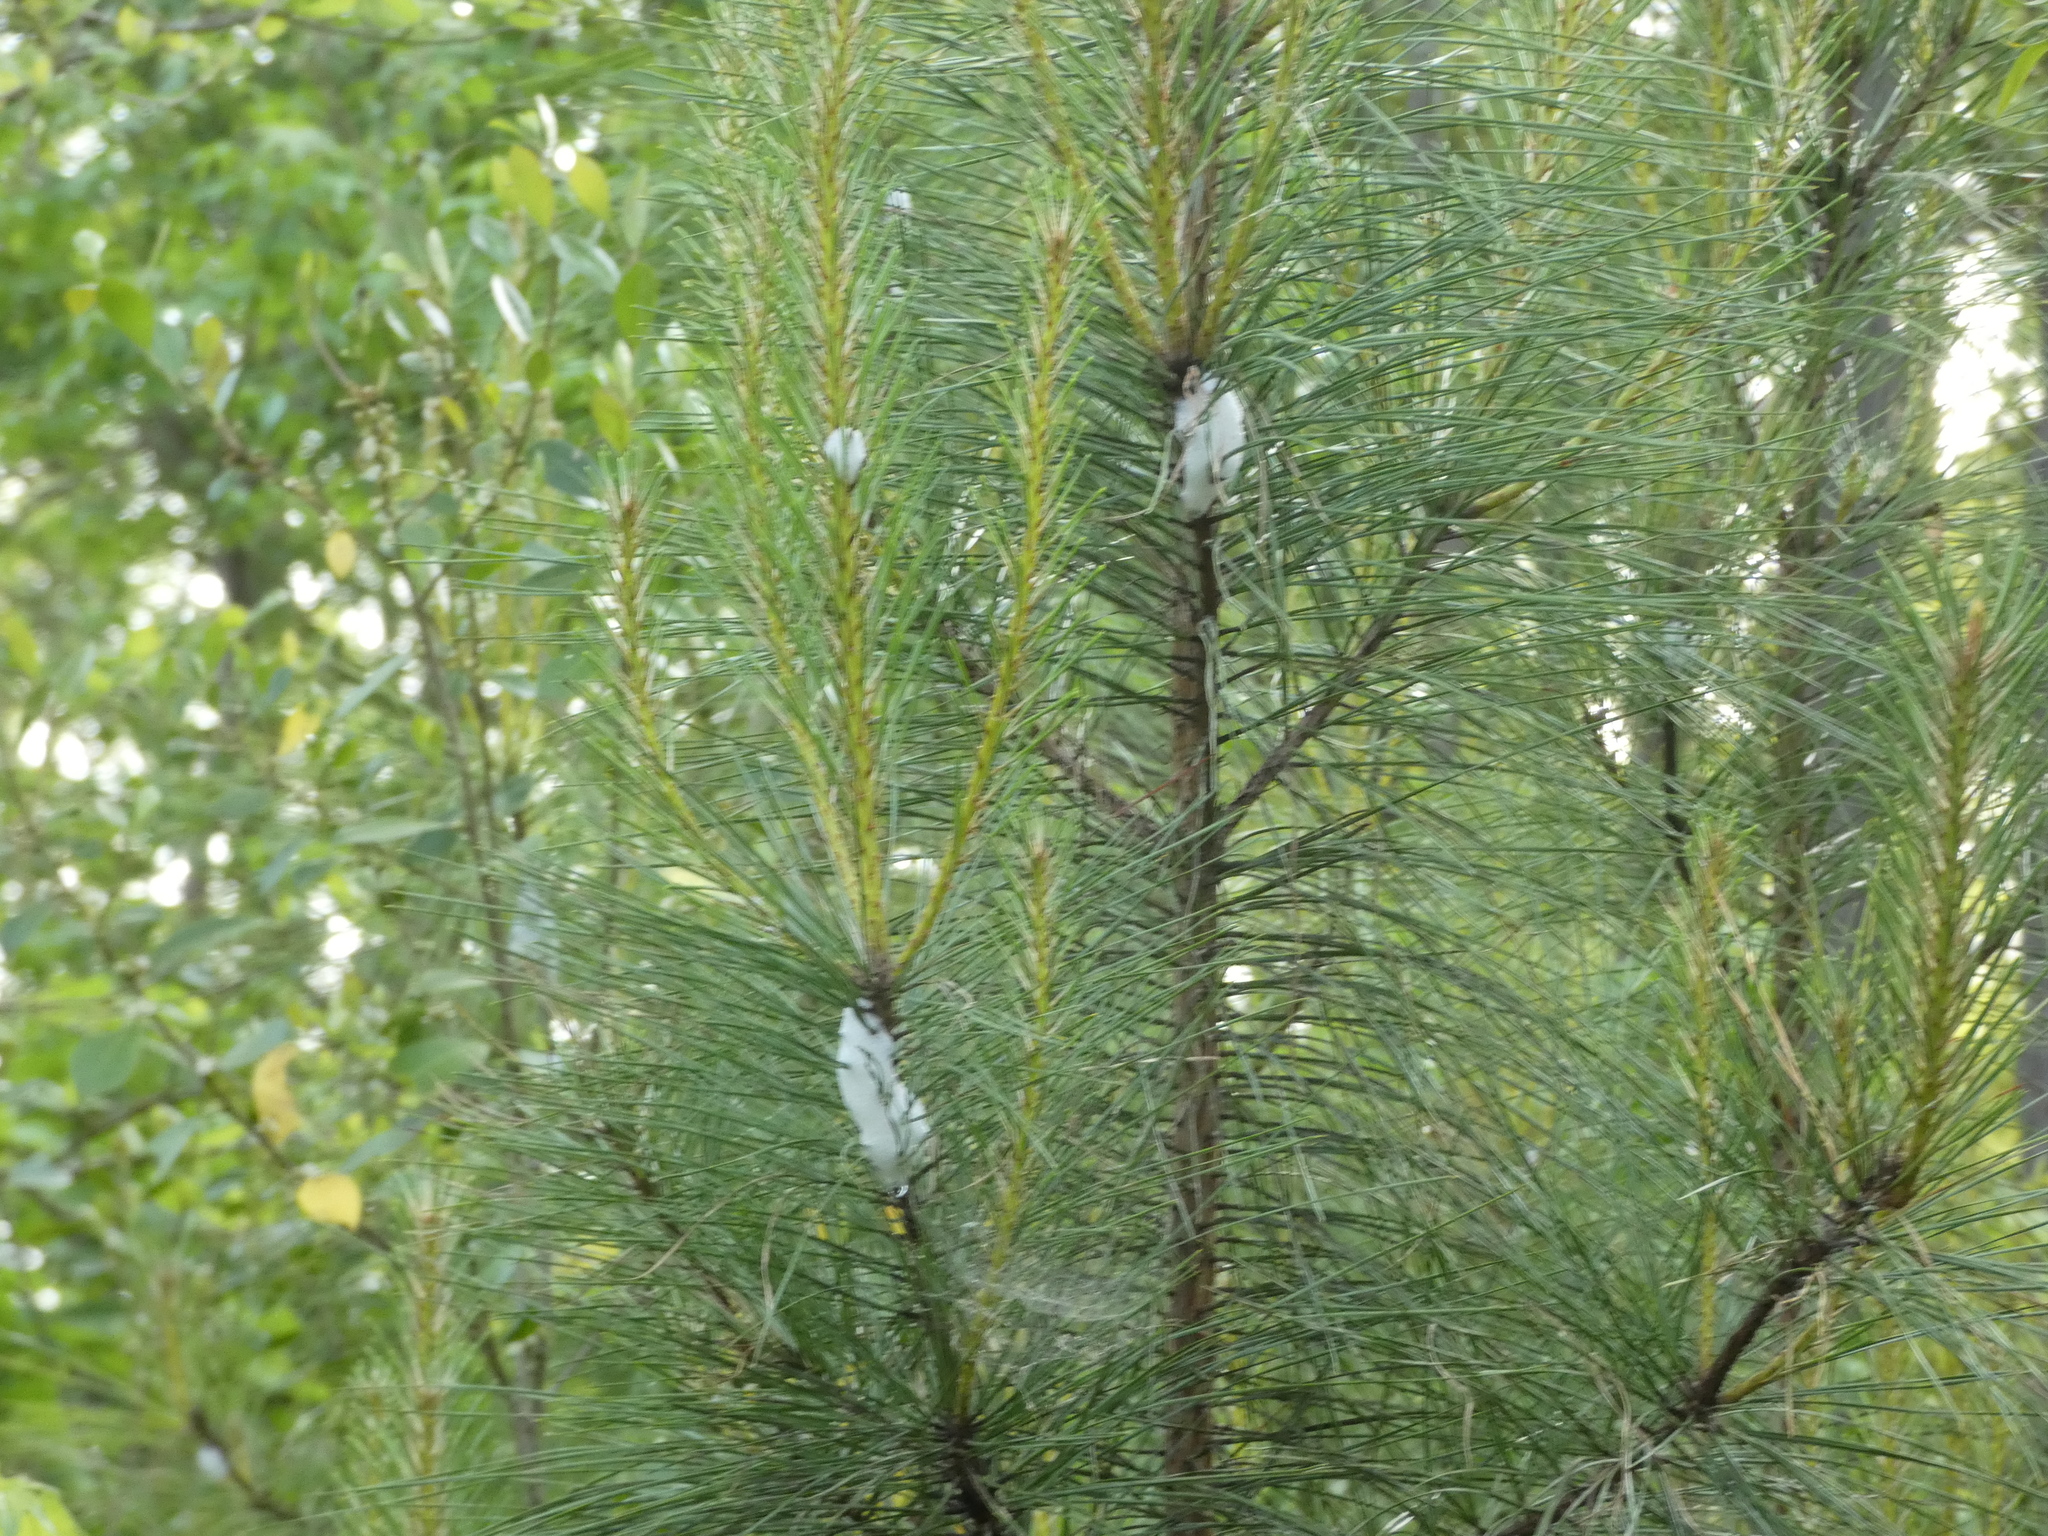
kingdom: Animalia
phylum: Arthropoda
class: Insecta
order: Hemiptera
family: Epipygidae
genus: Epipyga
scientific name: Epipyga cribrata
